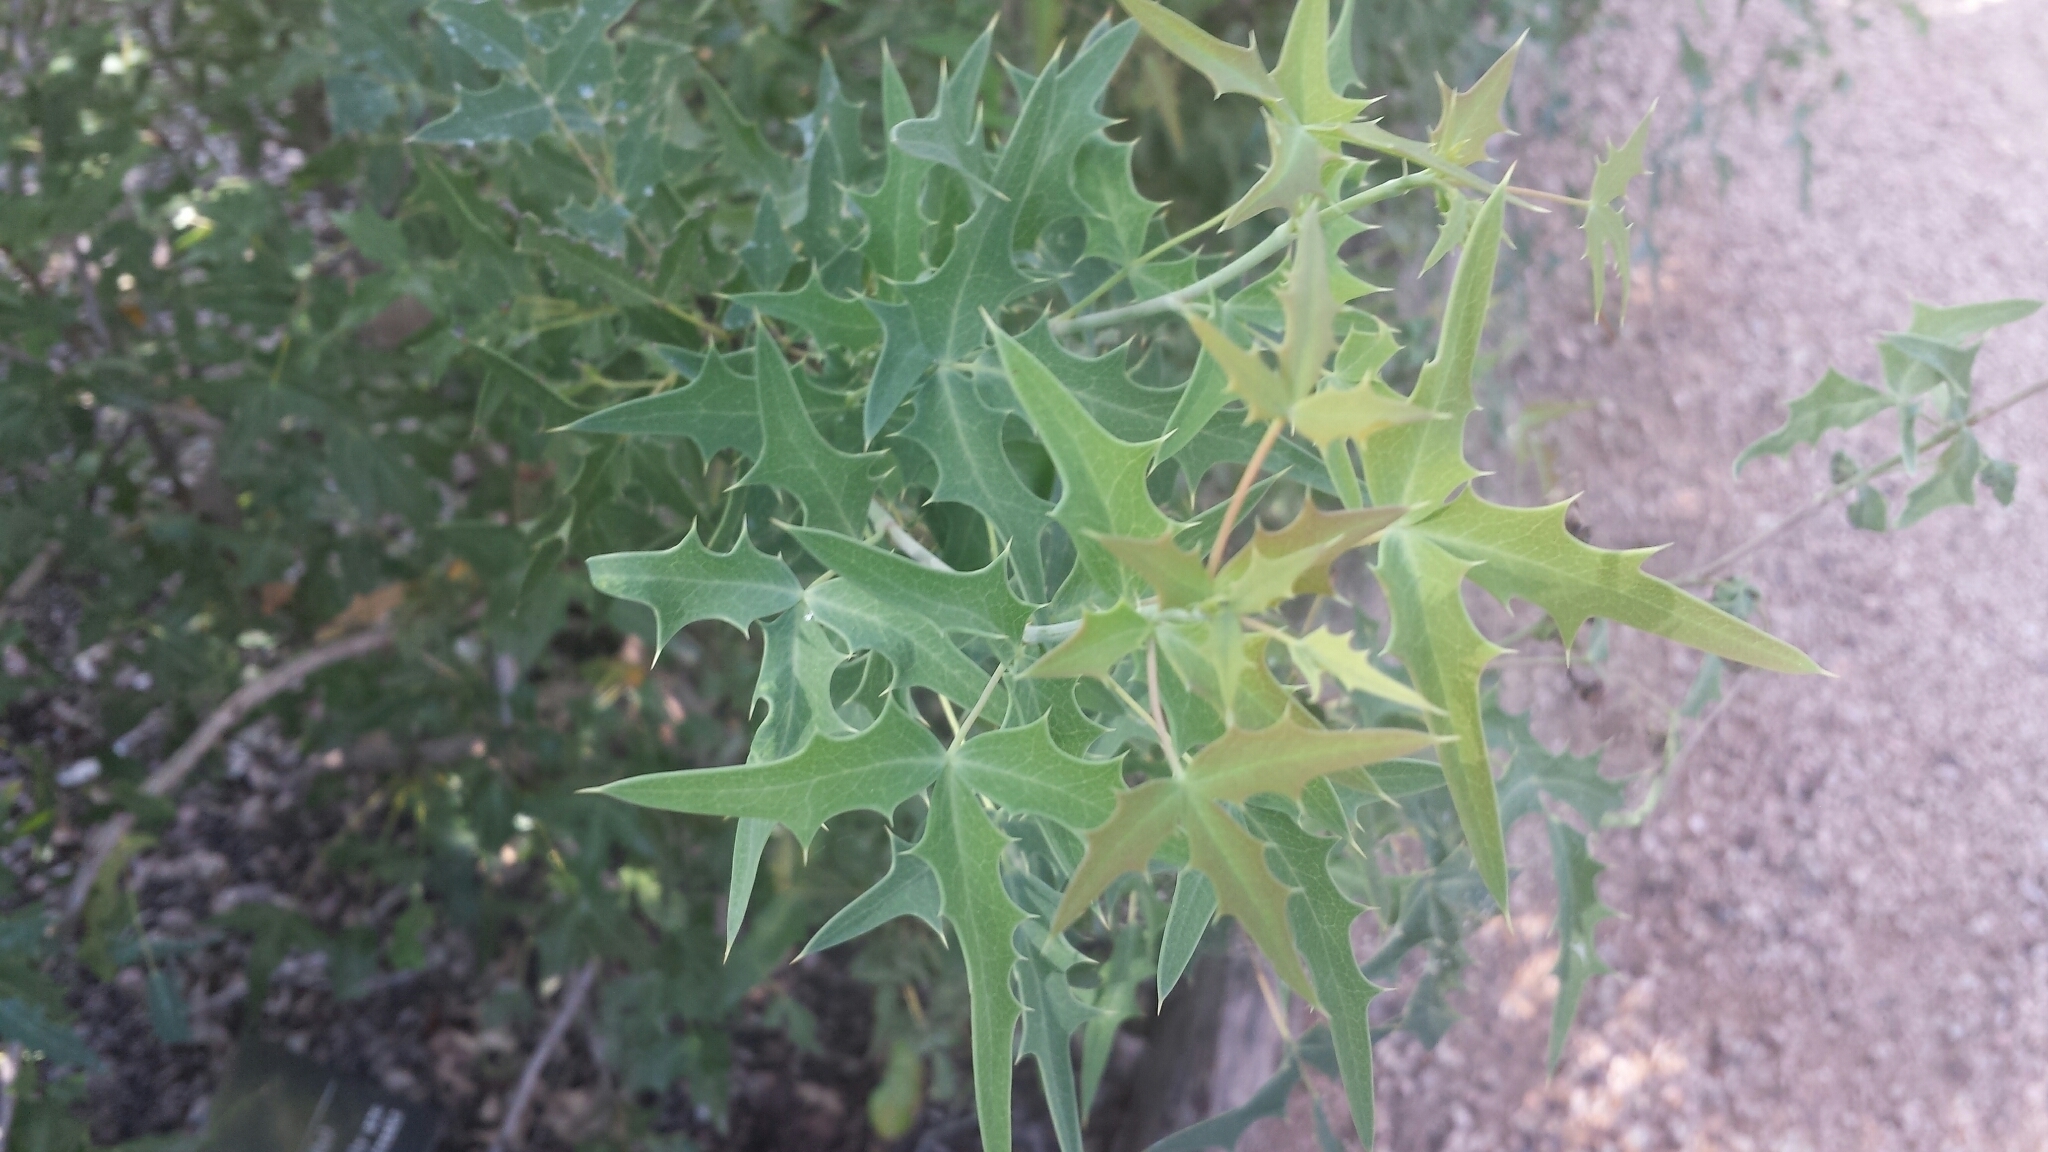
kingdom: Plantae
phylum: Tracheophyta
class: Magnoliopsida
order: Ranunculales
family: Berberidaceae
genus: Alloberberis
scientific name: Alloberberis trifoliolata
